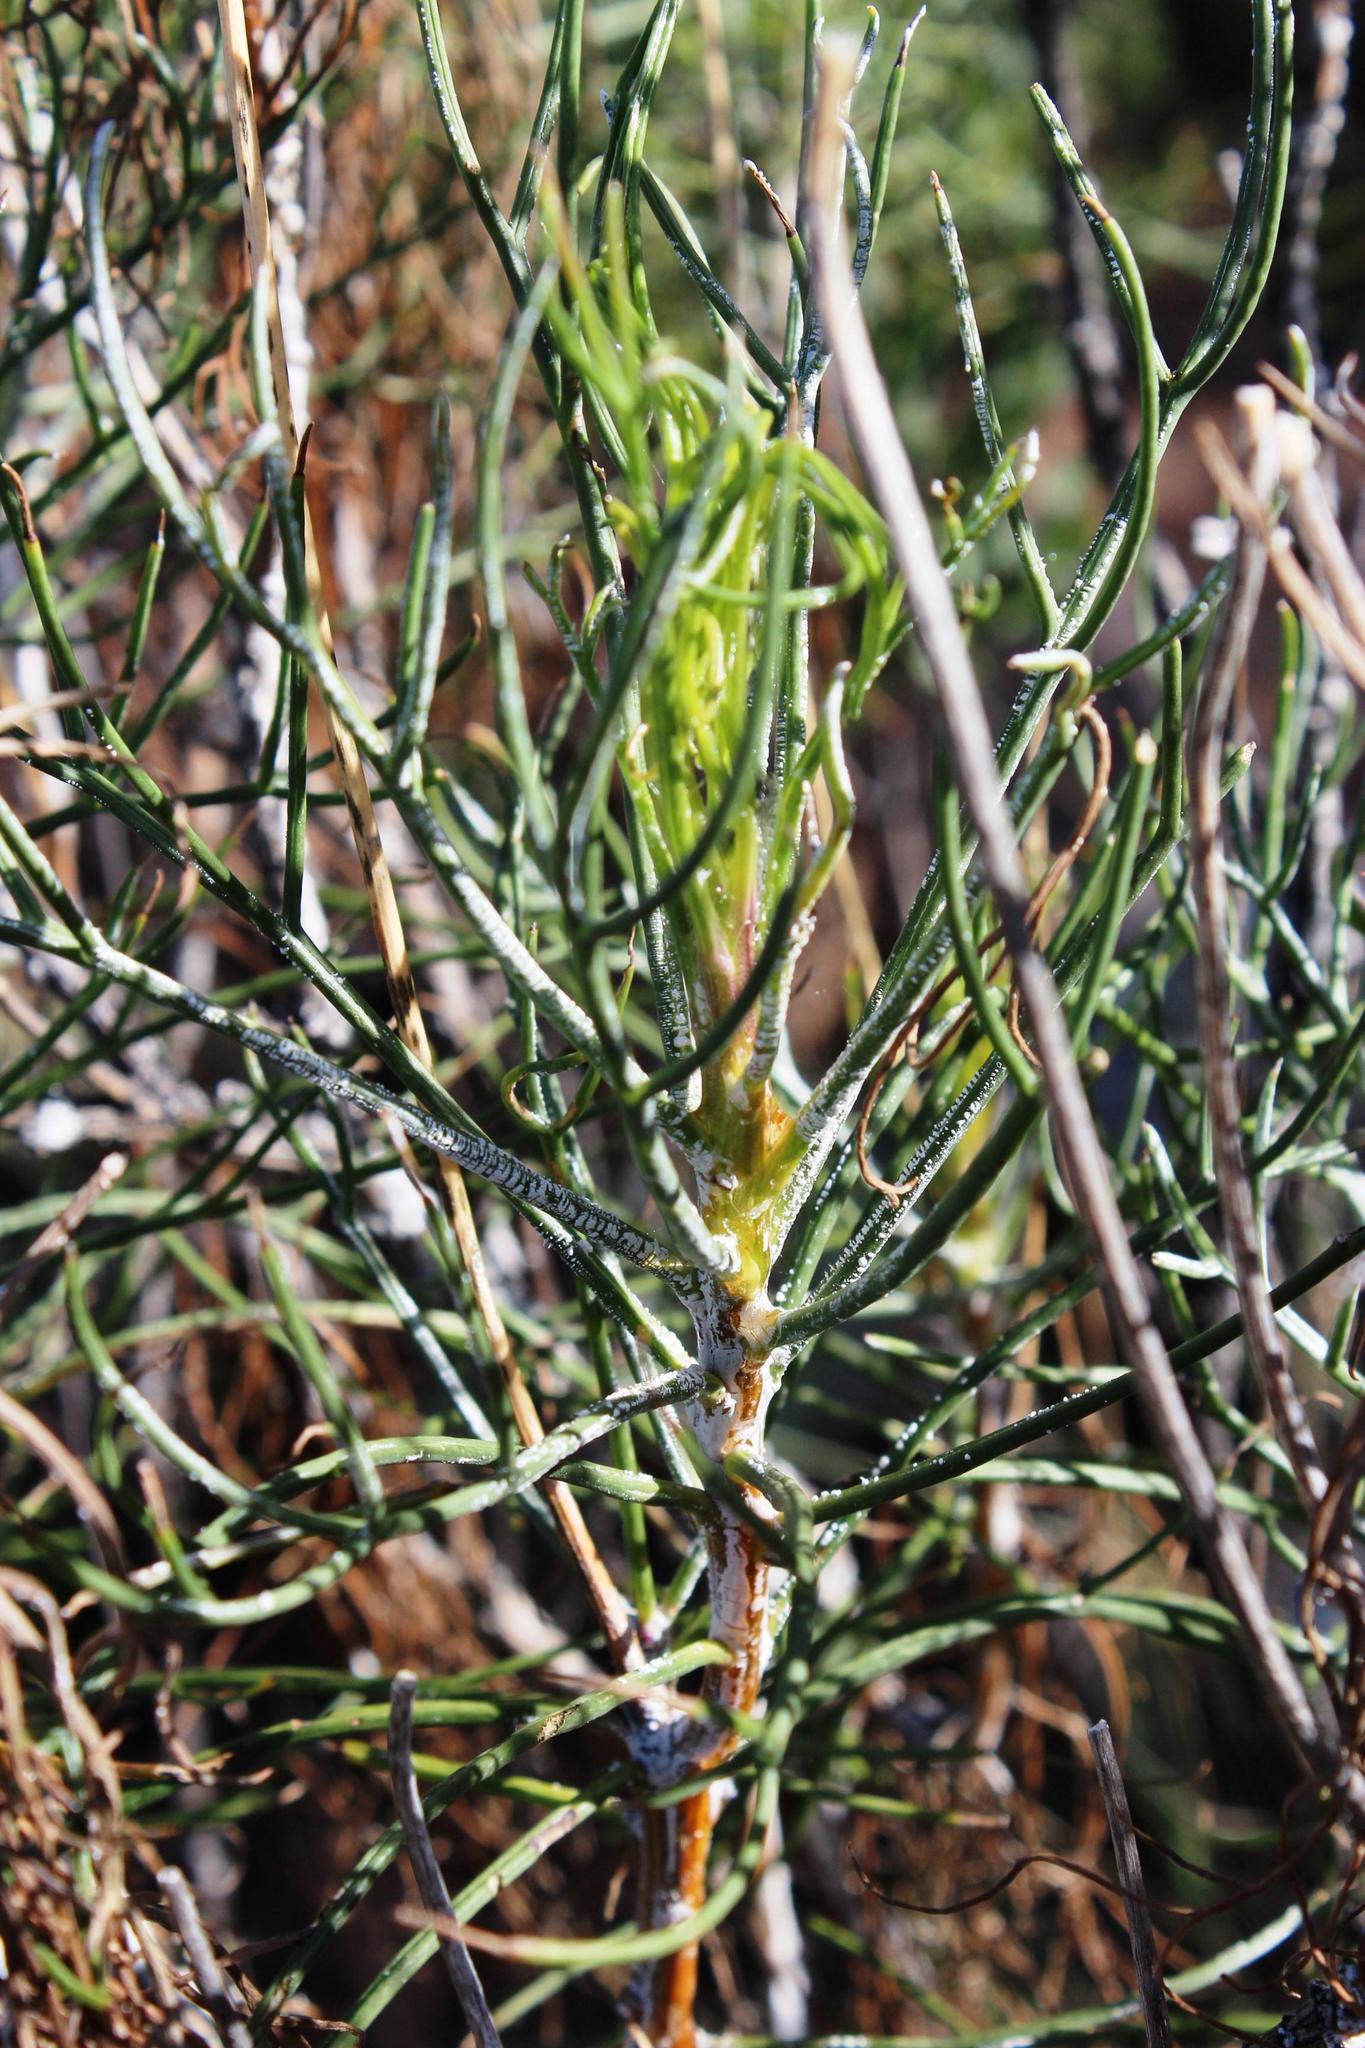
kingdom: Plantae
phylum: Tracheophyta
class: Magnoliopsida
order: Asterales
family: Asteraceae
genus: Euryops
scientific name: Euryops wageneri
